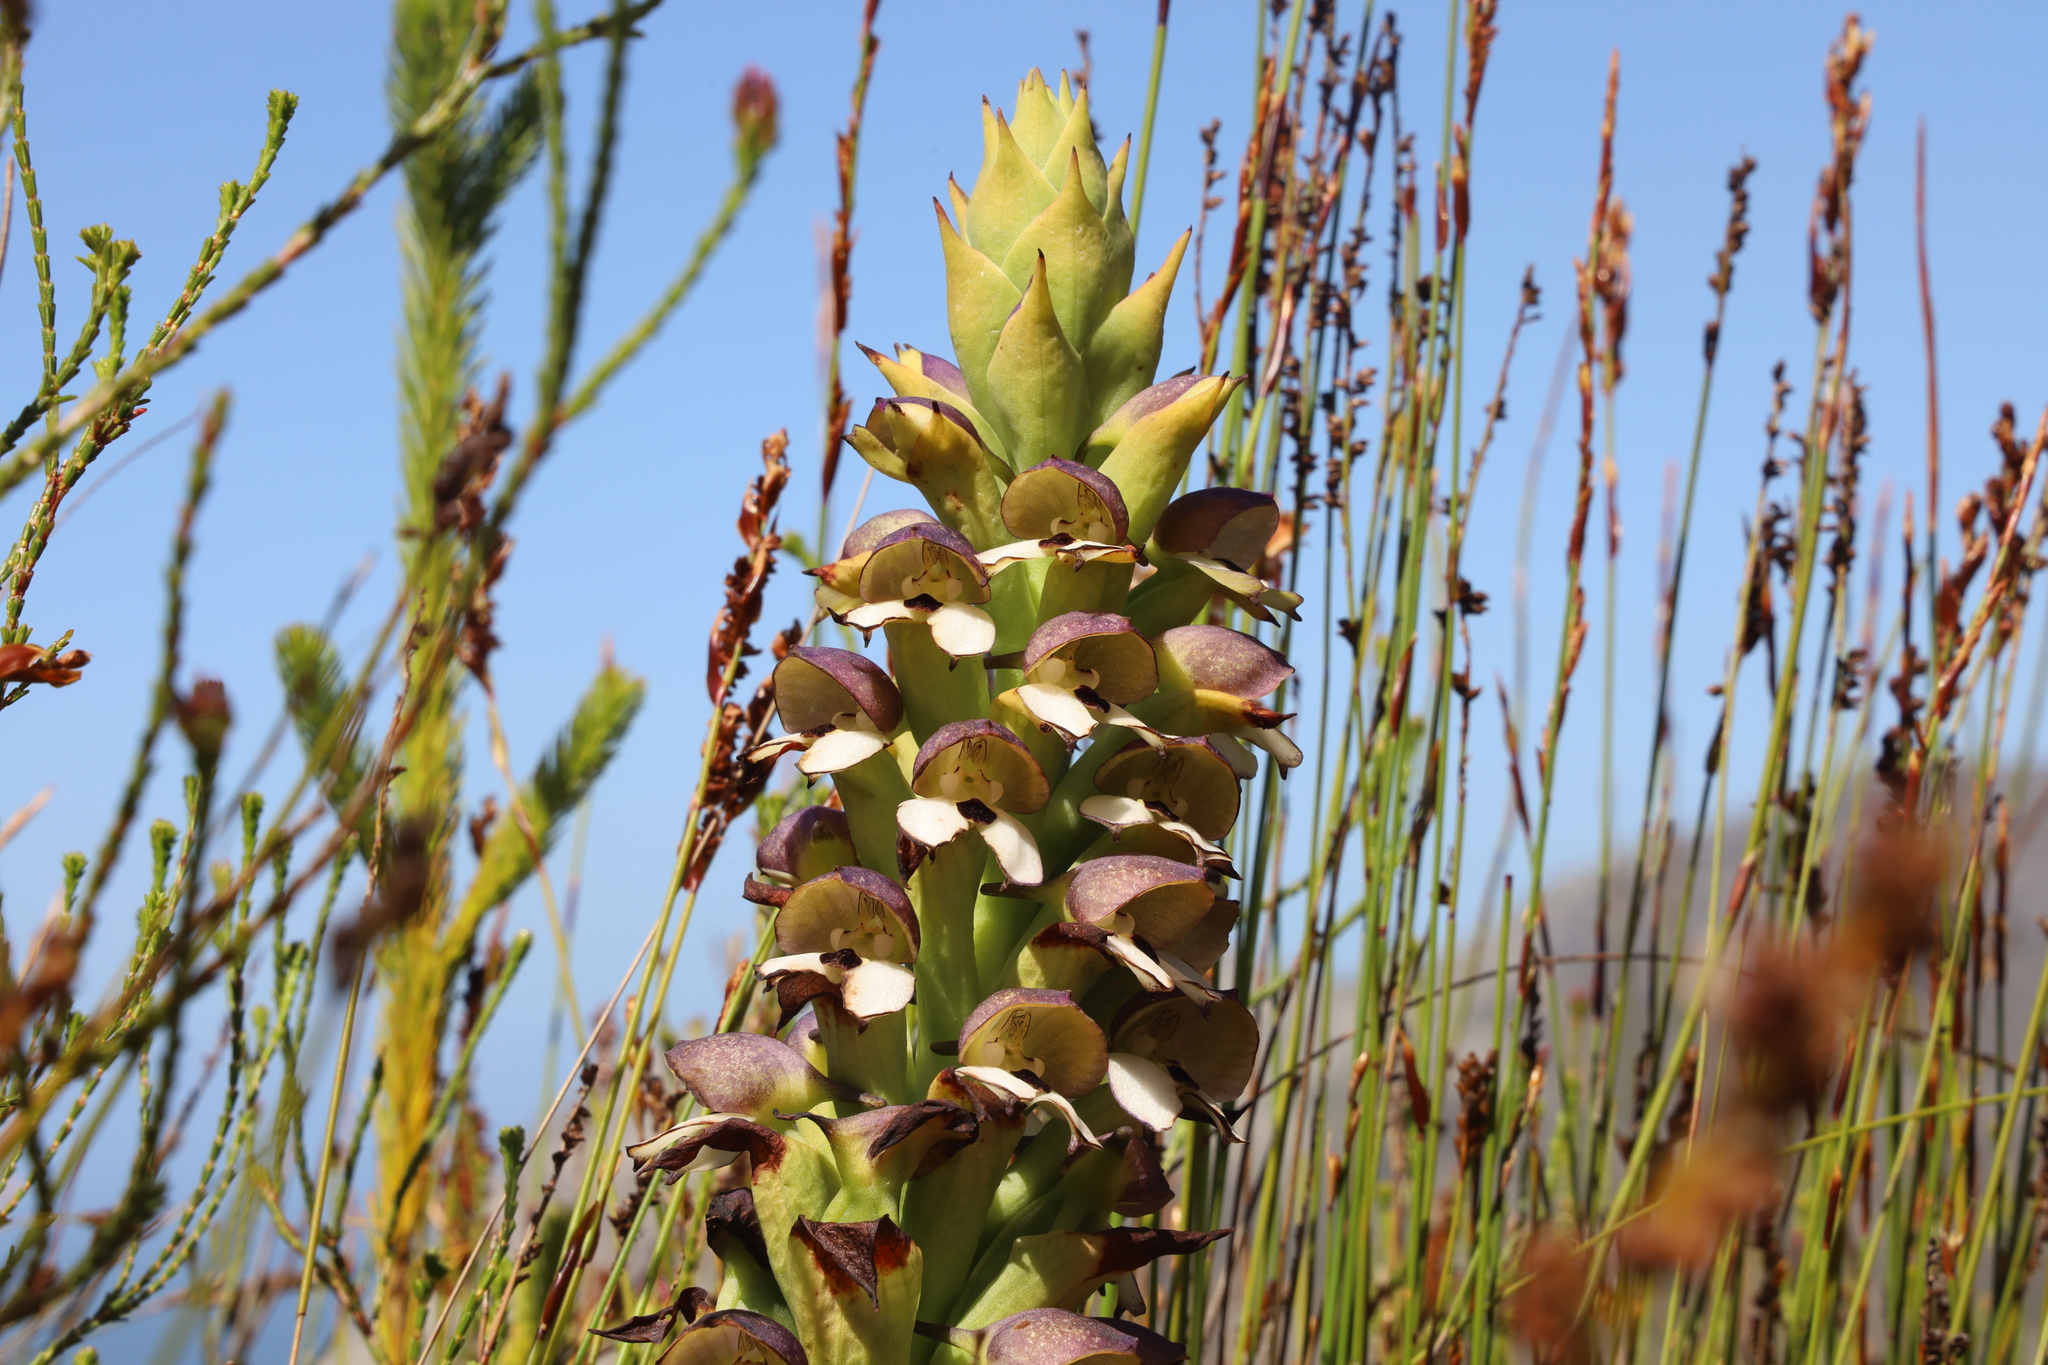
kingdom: Plantae
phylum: Tracheophyta
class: Liliopsida
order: Asparagales
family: Orchidaceae
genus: Disa
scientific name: Disa cornuta
